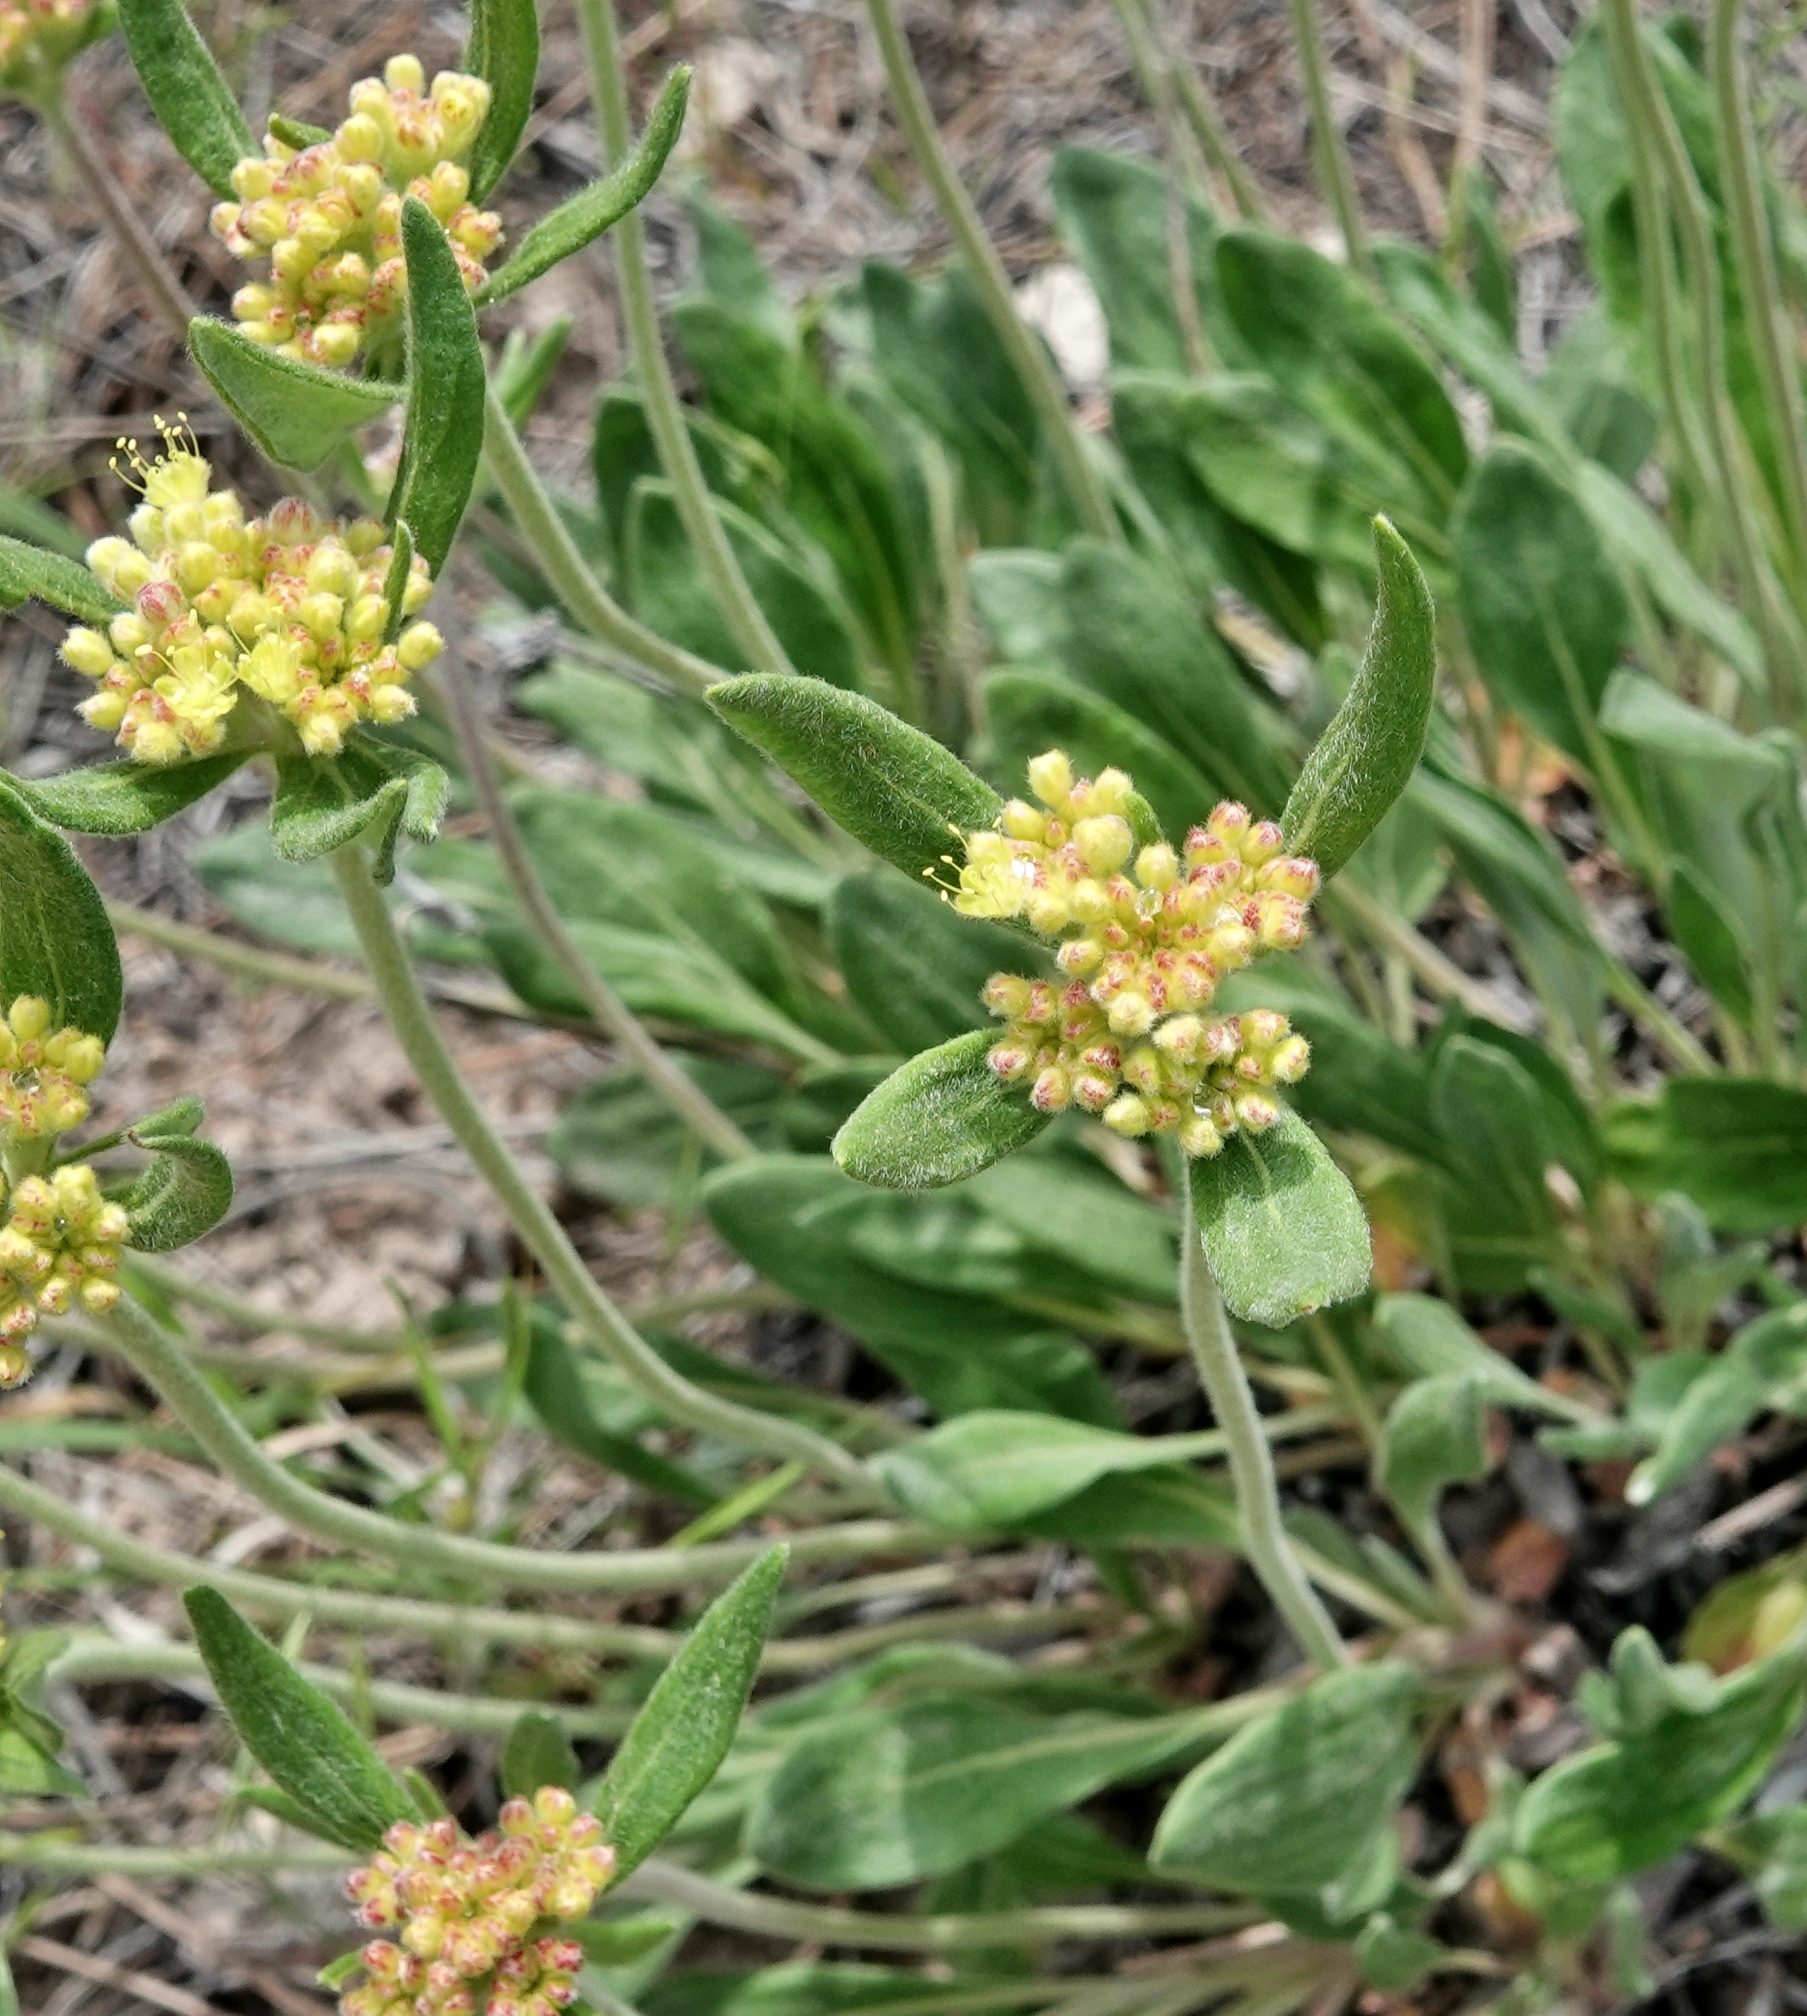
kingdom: Plantae
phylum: Tracheophyta
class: Magnoliopsida
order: Caryophyllales
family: Polygonaceae
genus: Eriogonum
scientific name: Eriogonum flavum
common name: Alpine golden wild buckwheat
